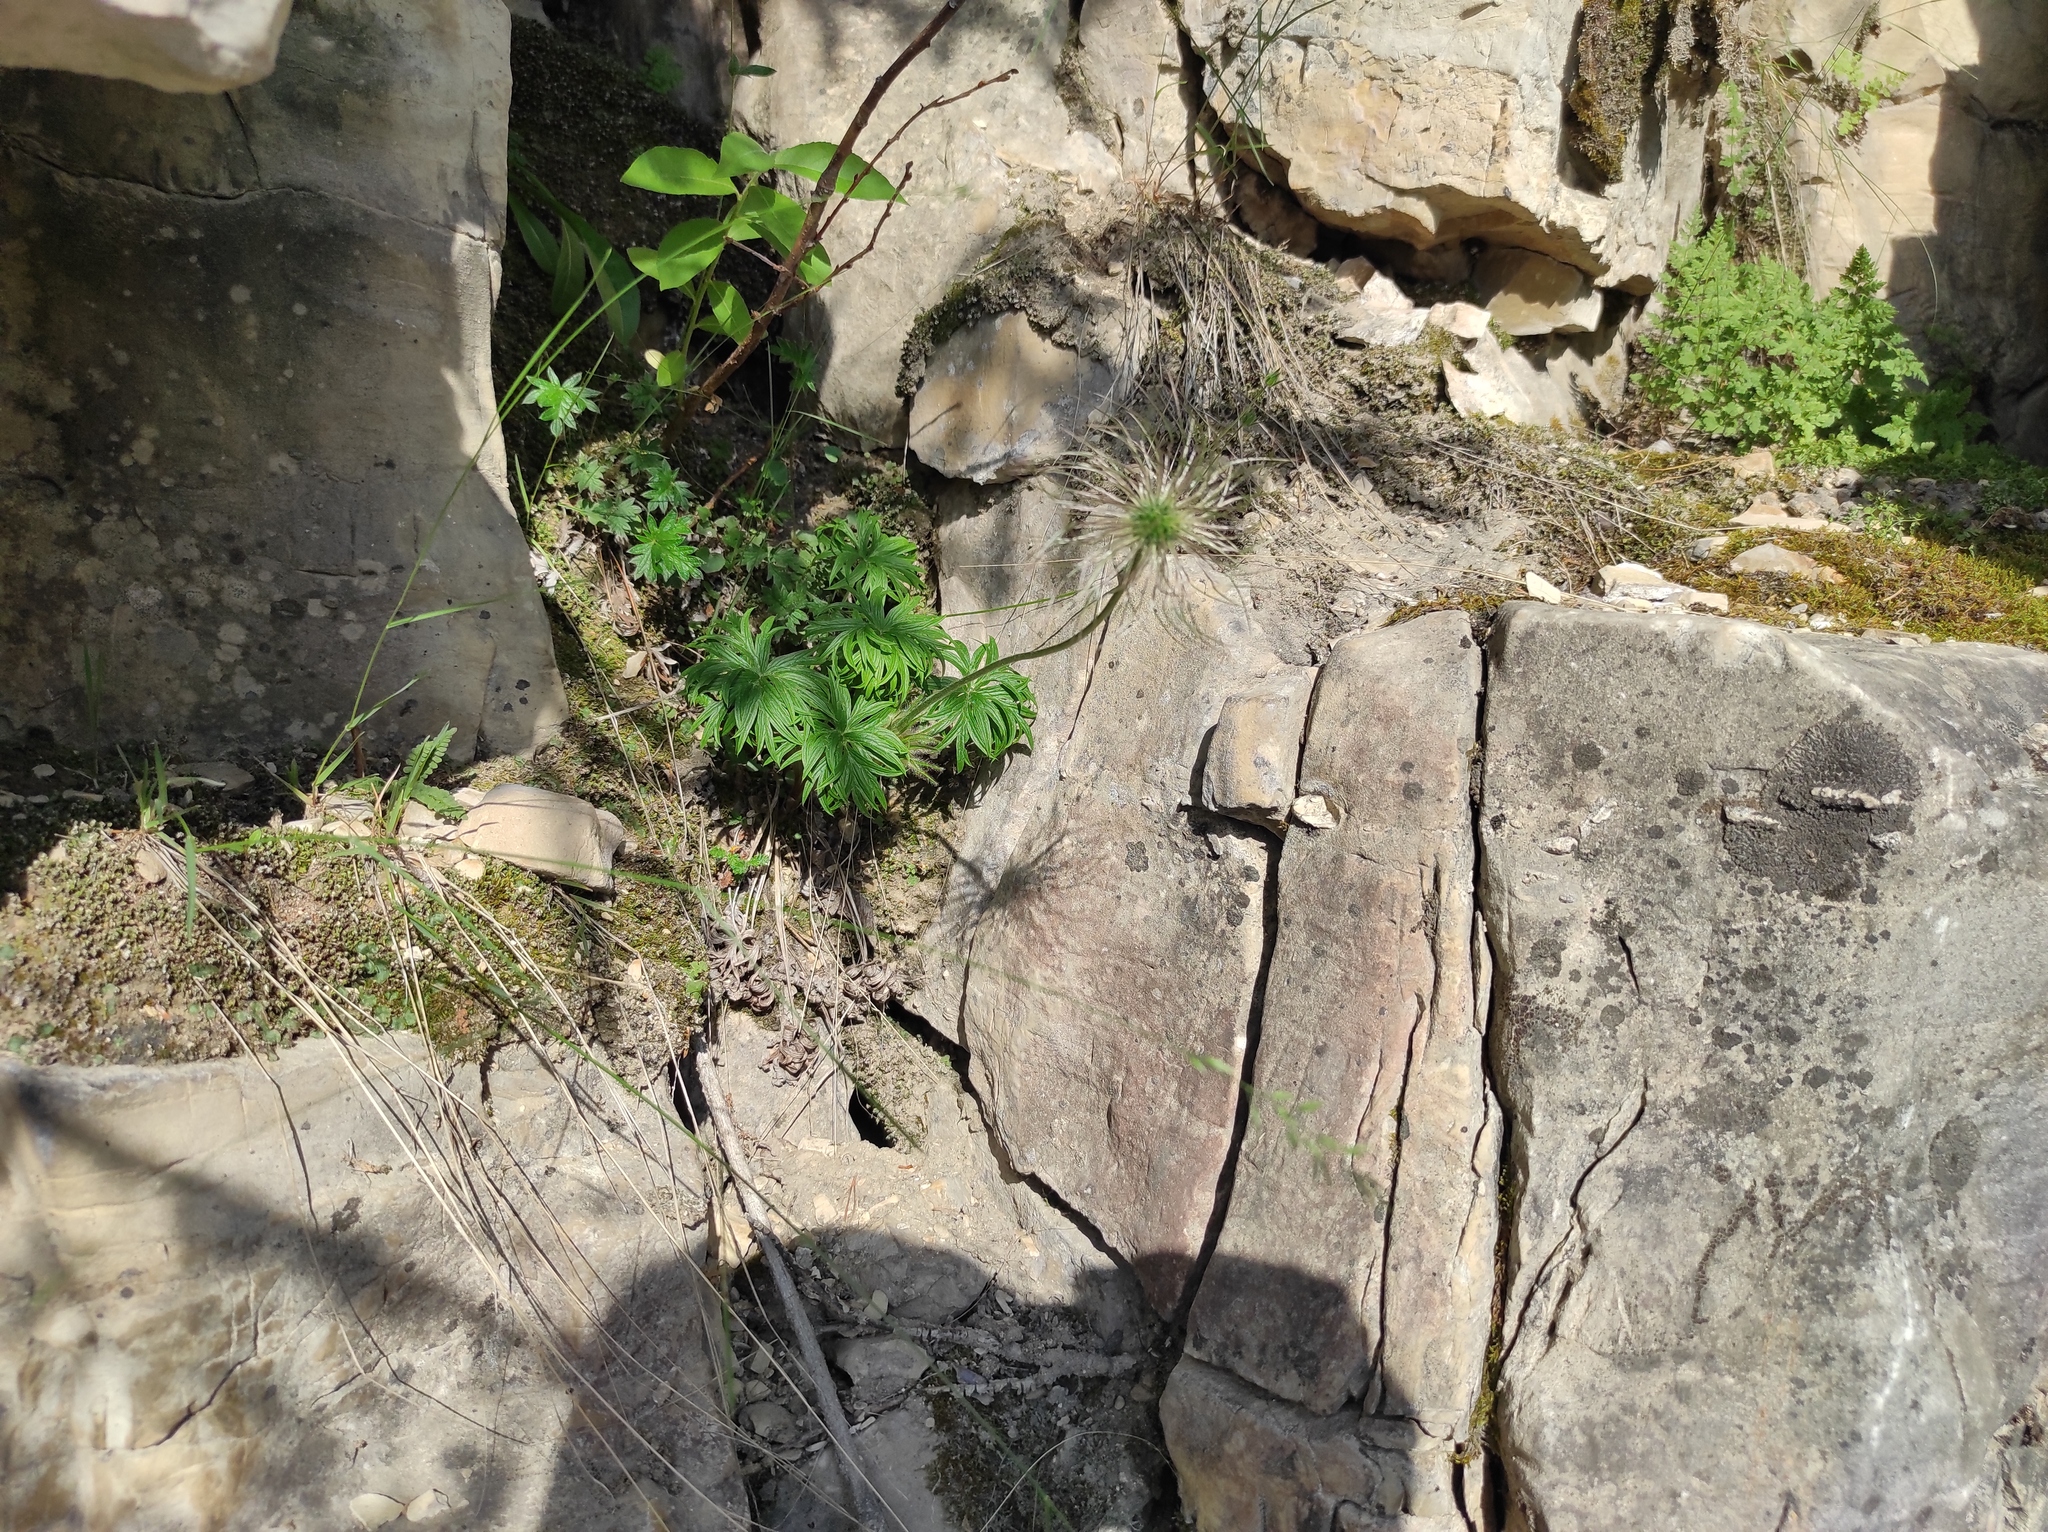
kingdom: Plantae
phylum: Tracheophyta
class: Magnoliopsida
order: Ranunculales
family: Ranunculaceae
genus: Pulsatilla
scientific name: Pulsatilla patens
